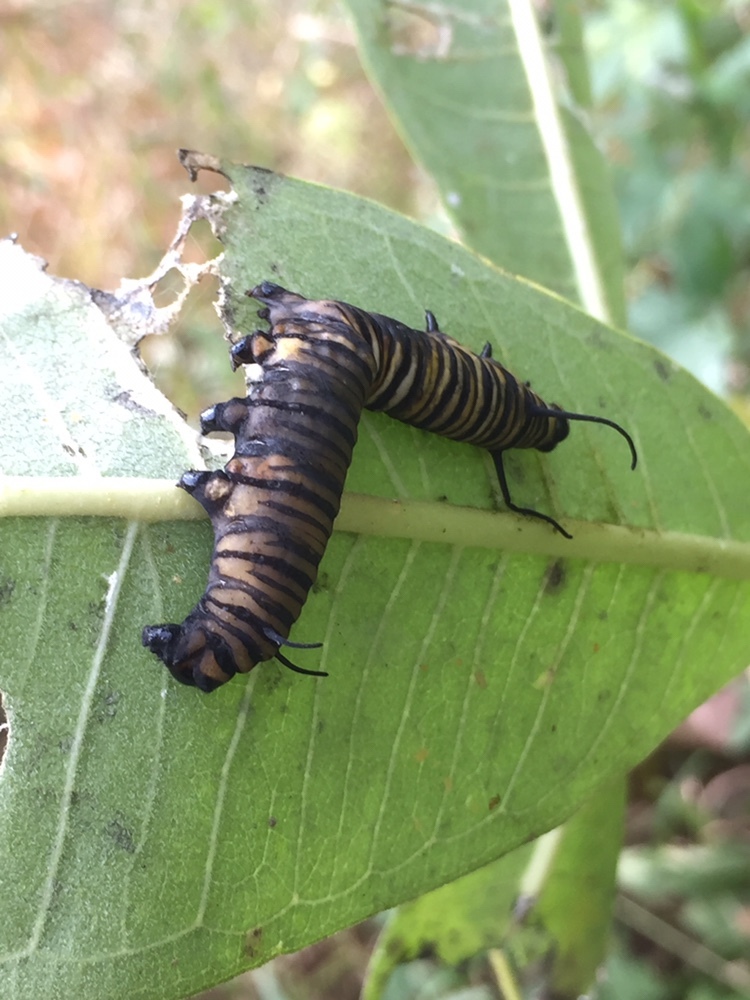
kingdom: Animalia
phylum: Arthropoda
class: Insecta
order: Lepidoptera
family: Nymphalidae
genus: Danaus
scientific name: Danaus plexippus
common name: Monarch
